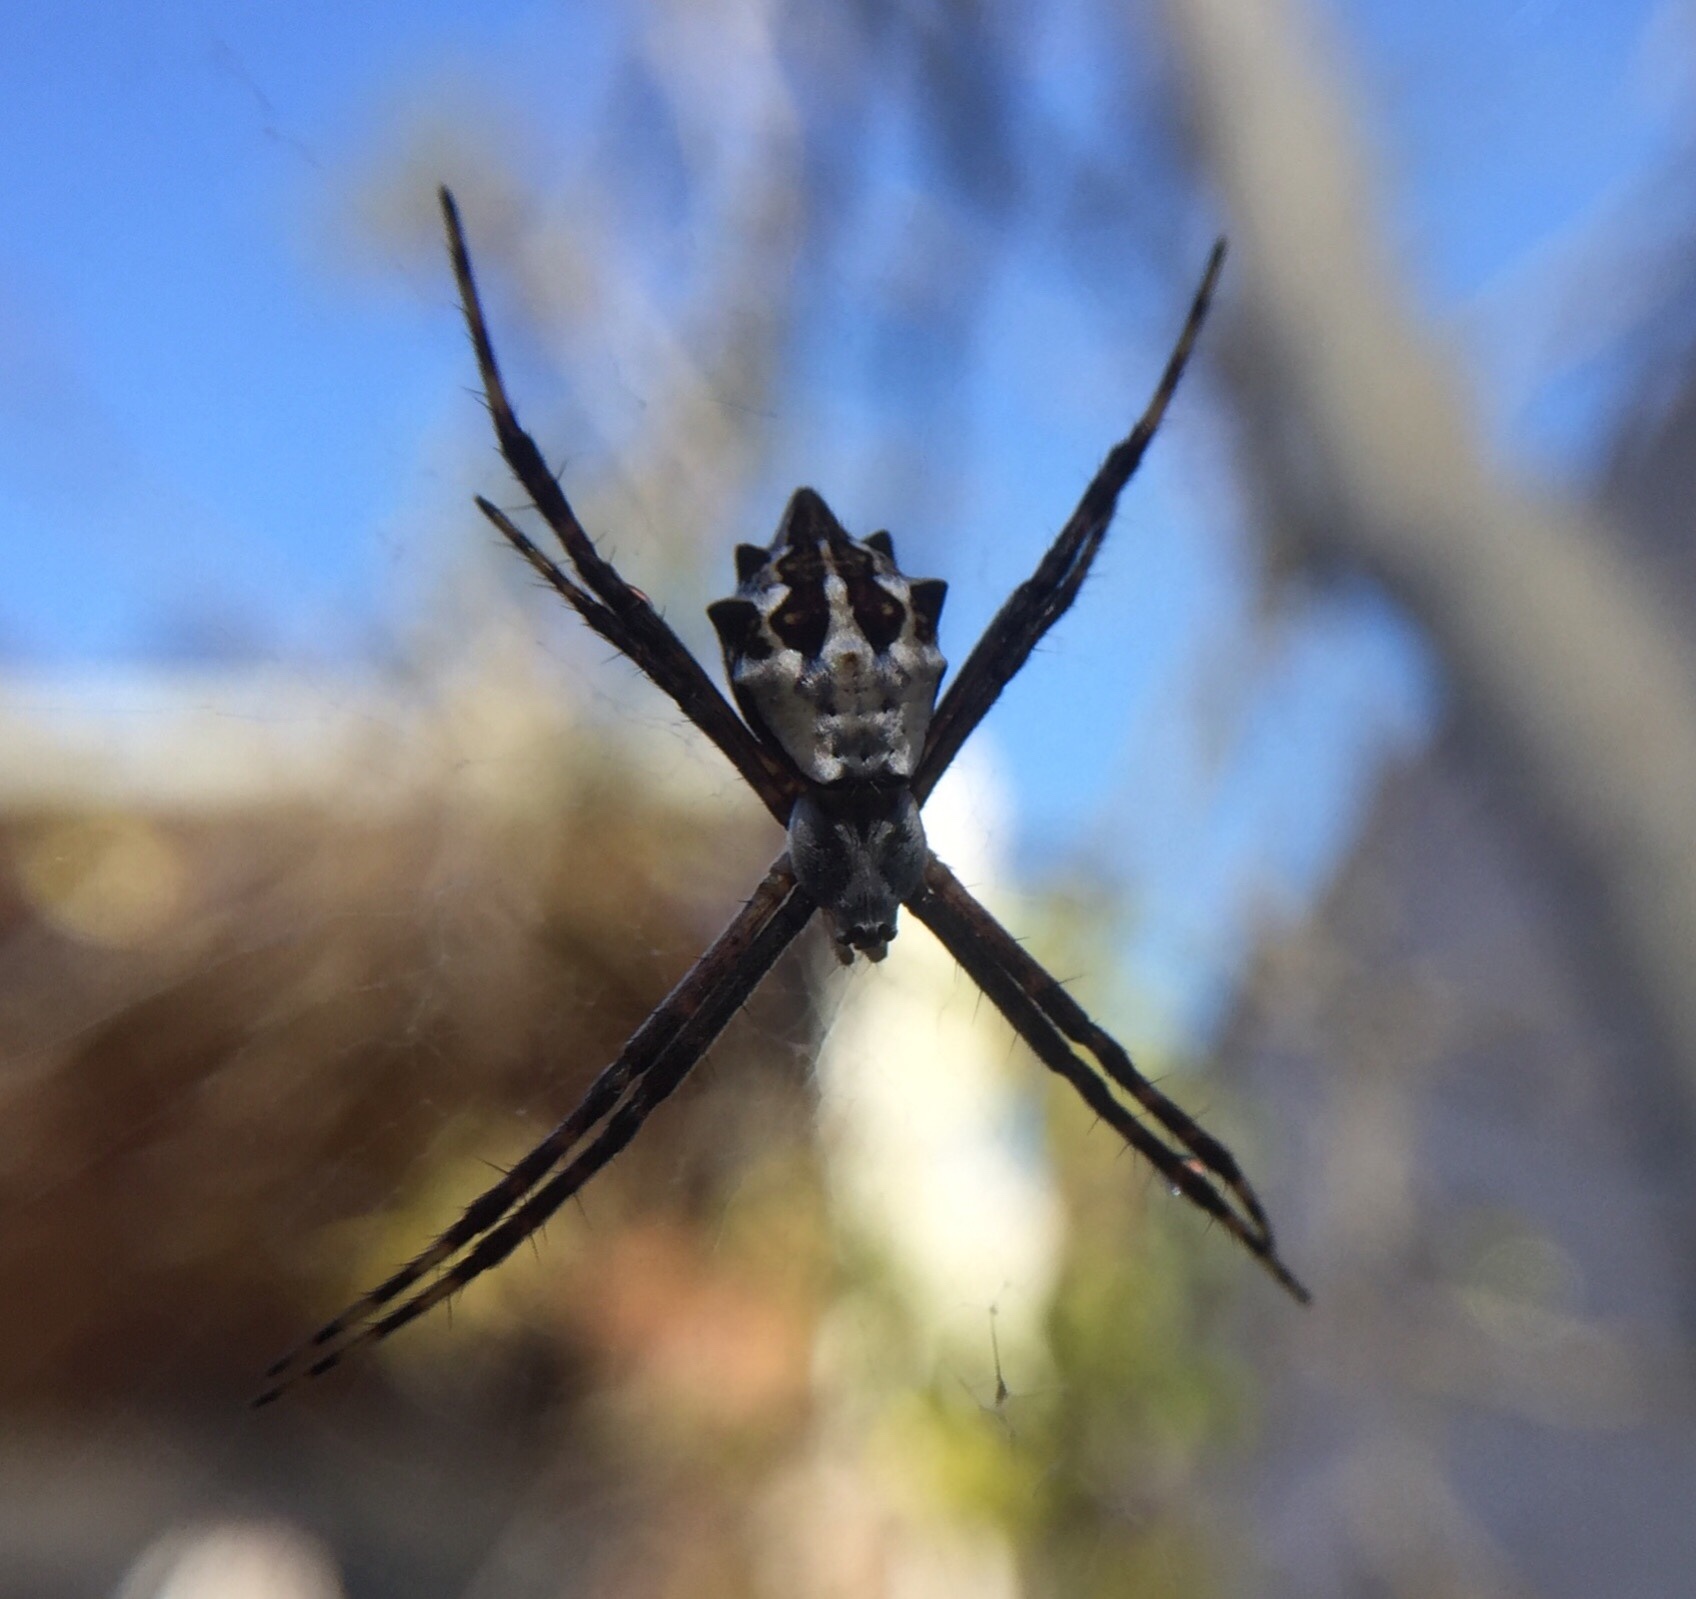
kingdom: Animalia
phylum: Arthropoda
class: Arachnida
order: Araneae
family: Araneidae
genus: Argiope
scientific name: Argiope argentata
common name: Orb weavers
